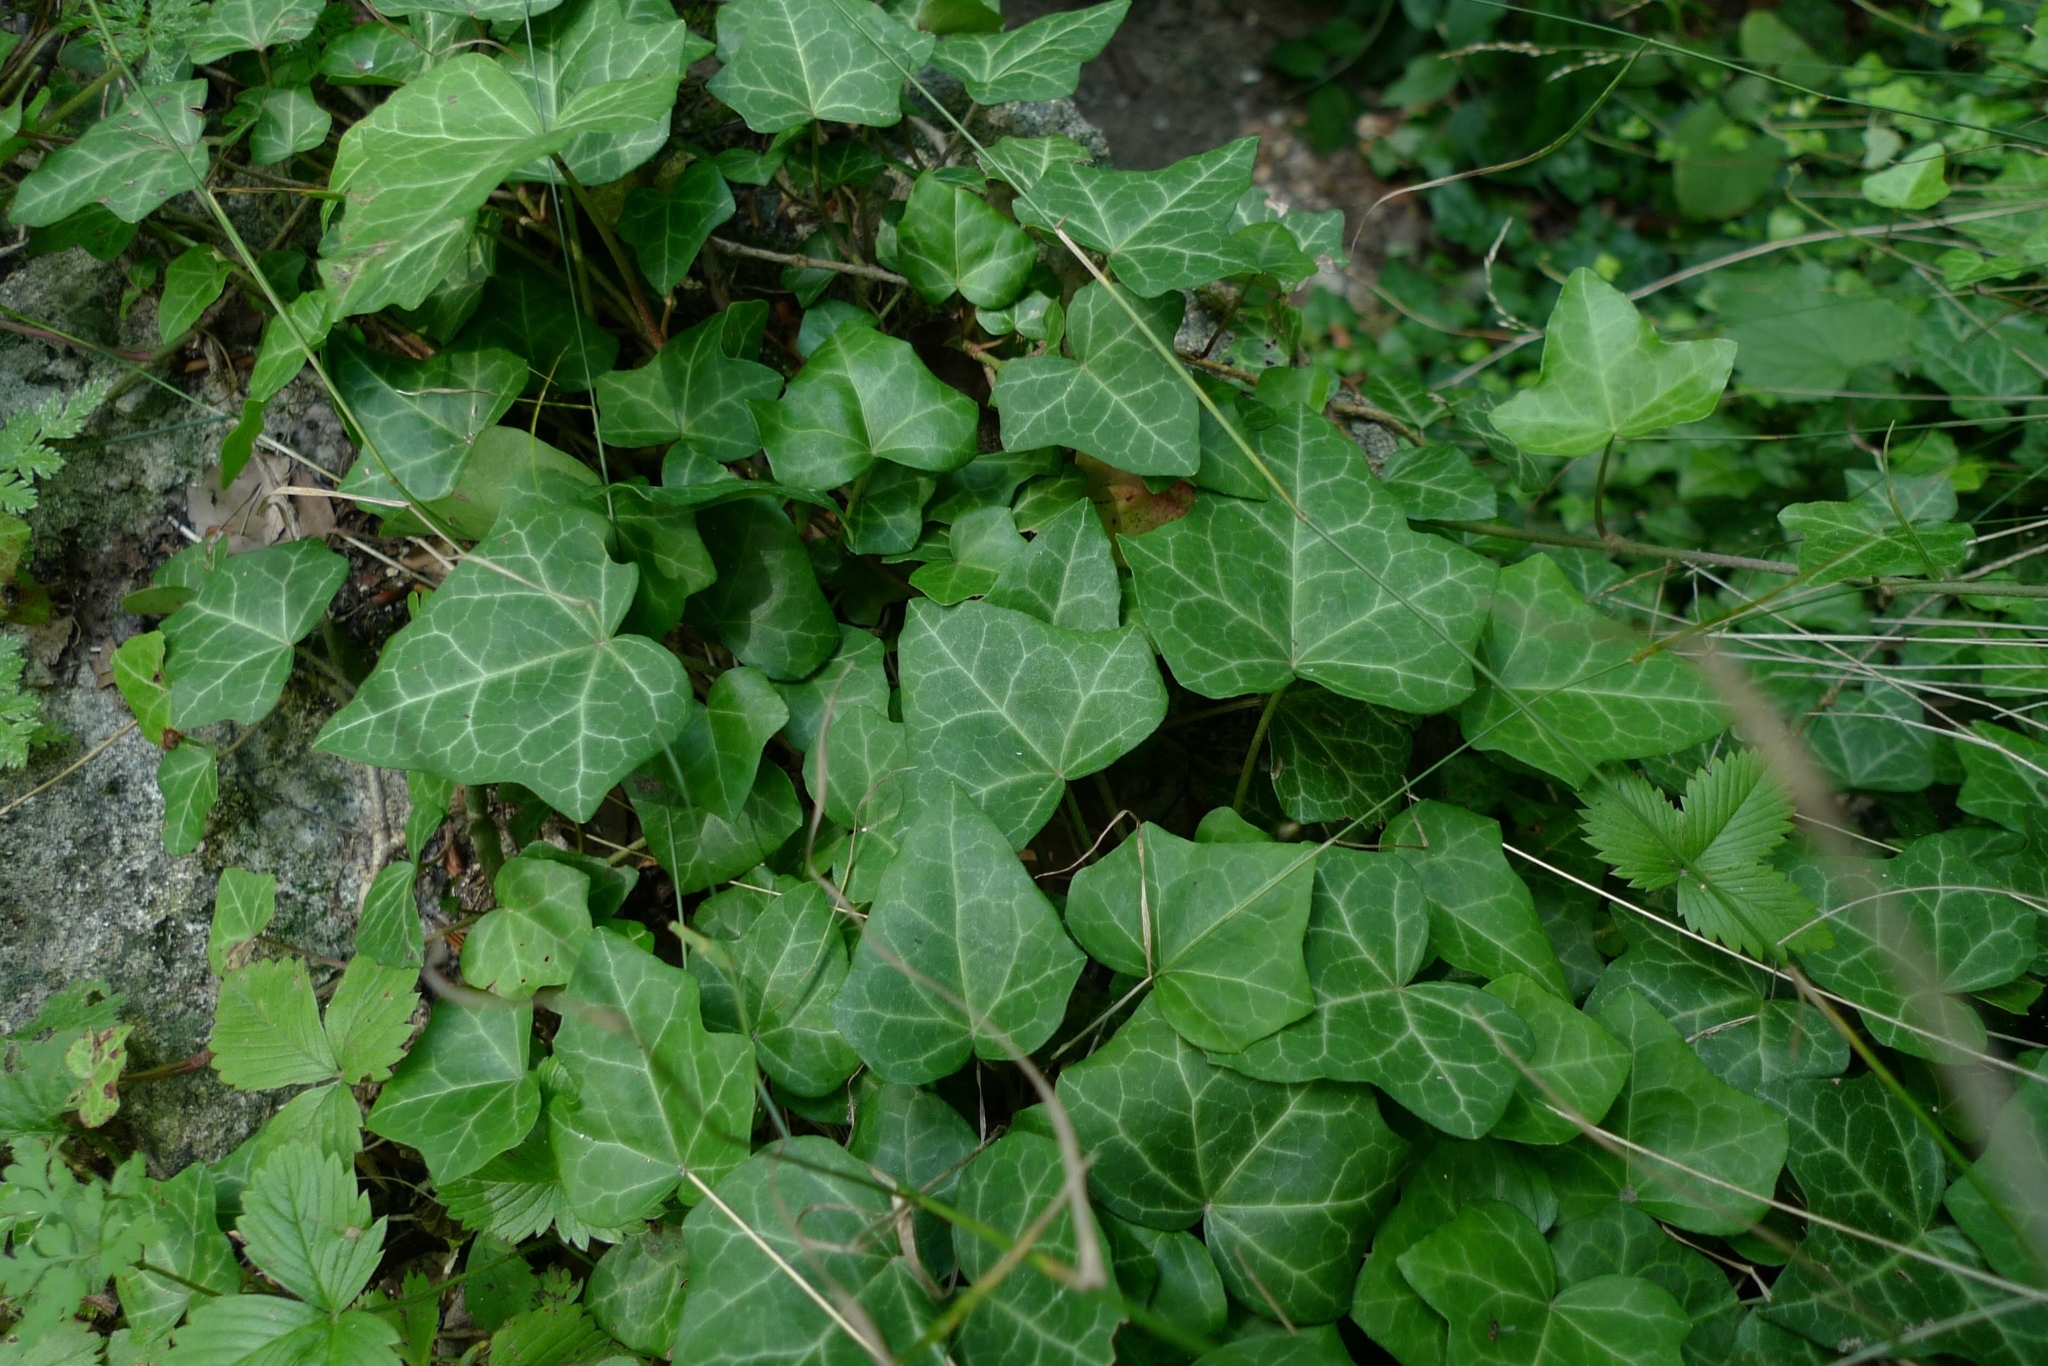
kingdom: Plantae
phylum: Tracheophyta
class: Magnoliopsida
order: Apiales
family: Araliaceae
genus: Hedera
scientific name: Hedera helix
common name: Ivy
